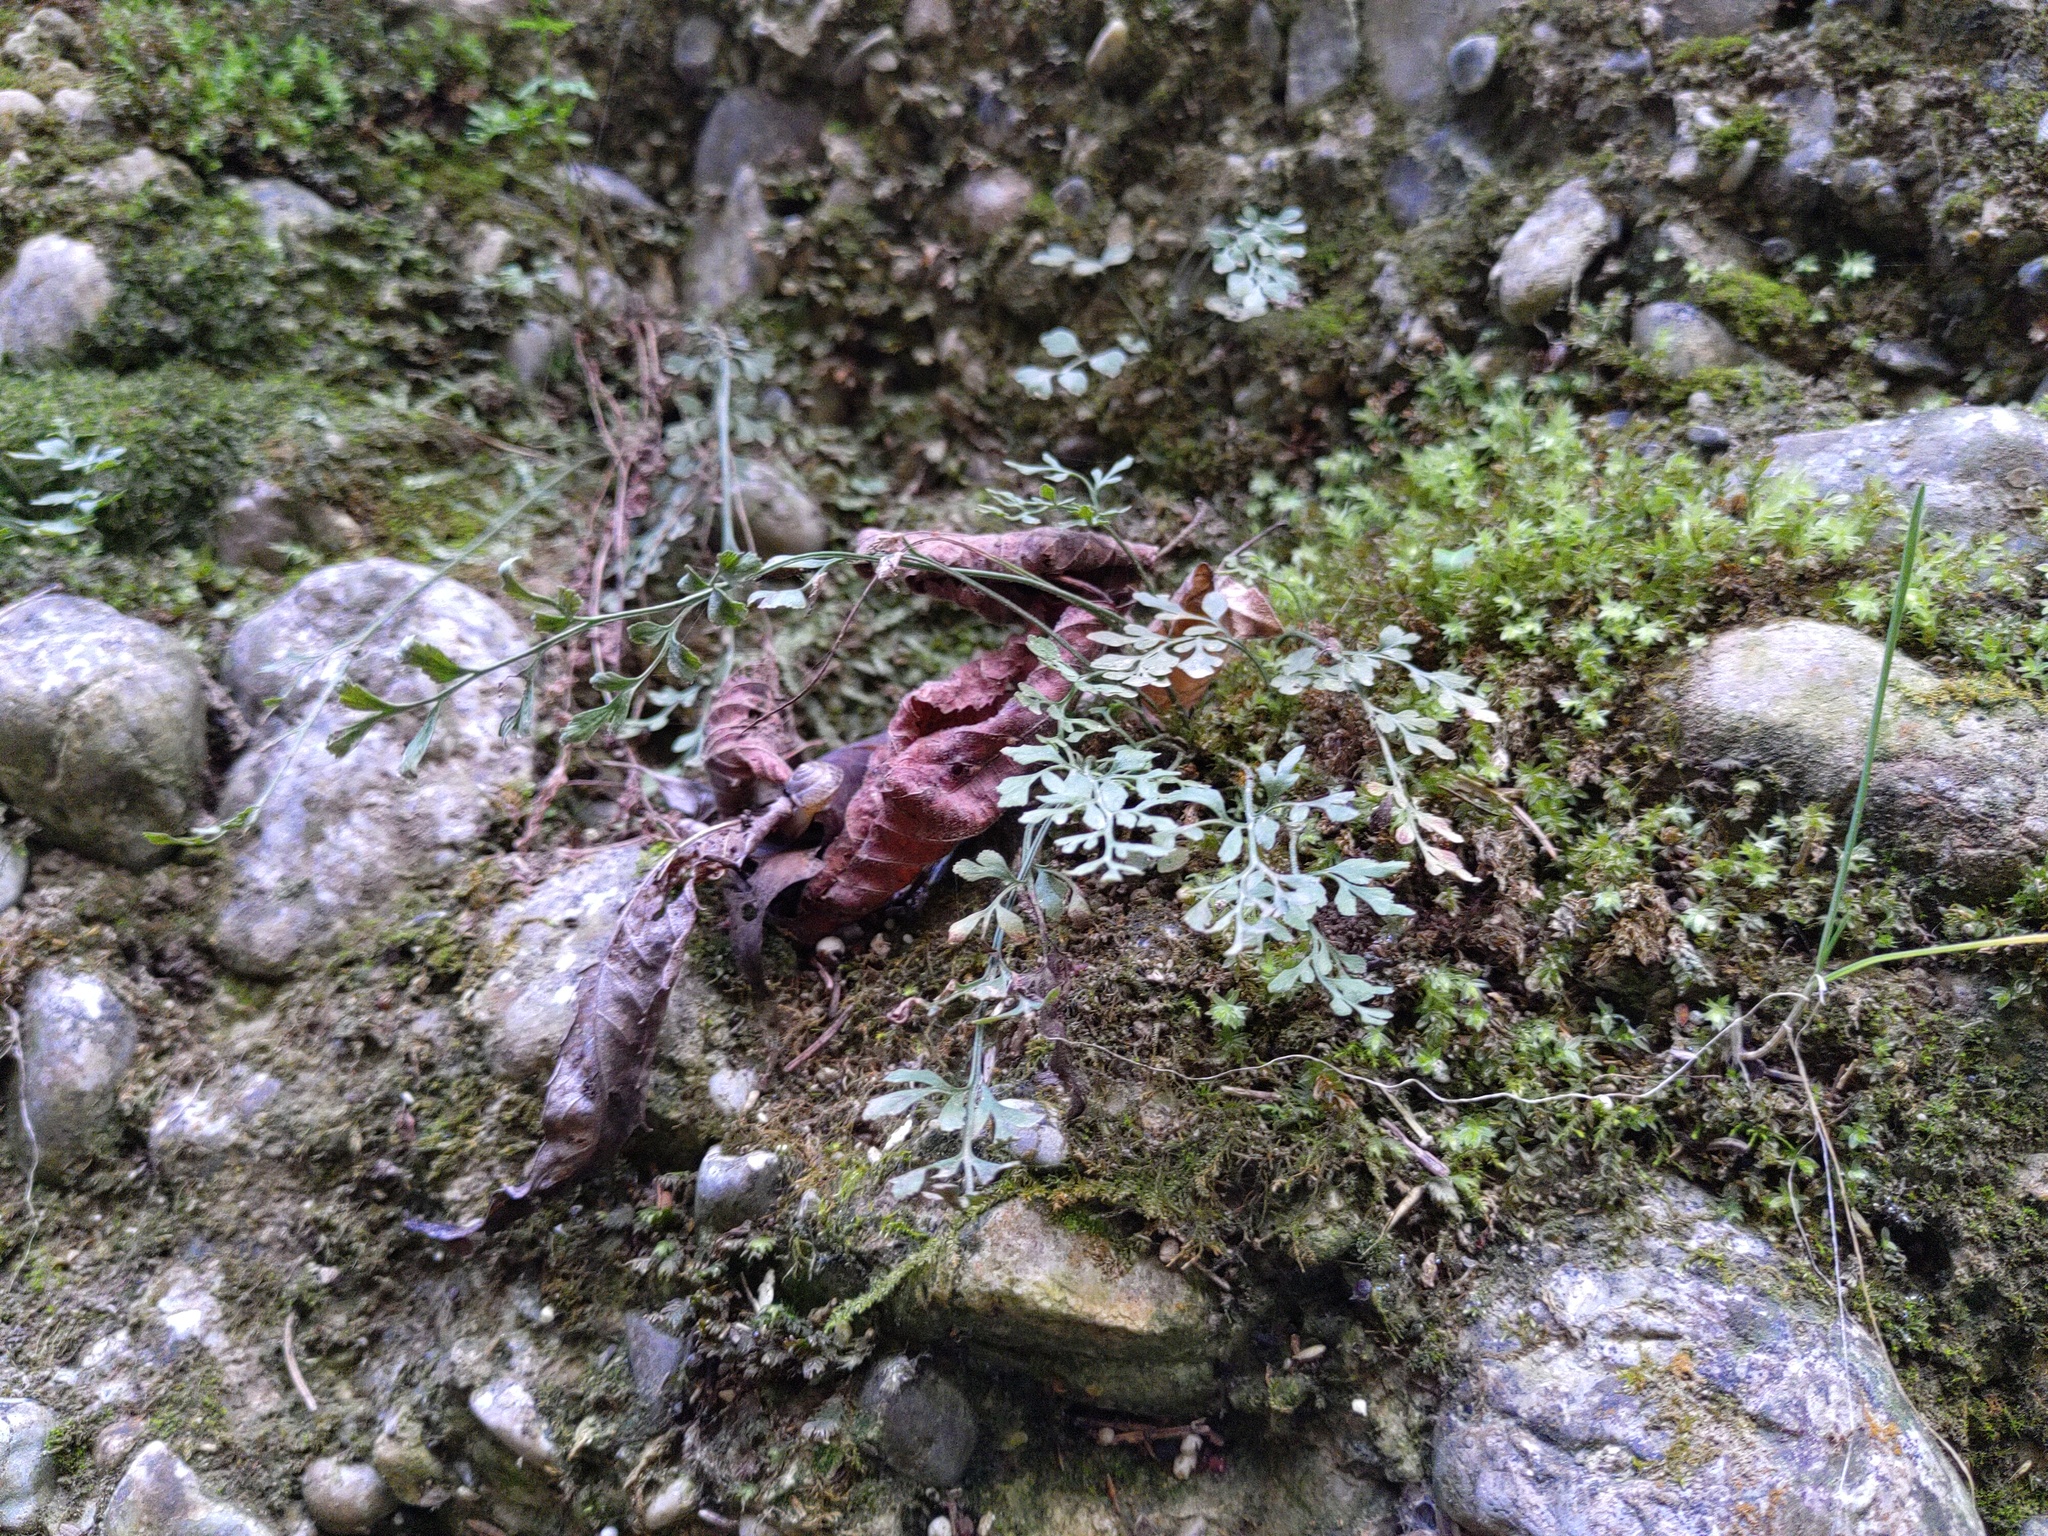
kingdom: Plantae
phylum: Tracheophyta
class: Polypodiopsida
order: Polypodiales
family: Aspleniaceae
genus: Asplenium
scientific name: Asplenium ruta-muraria
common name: Wall-rue
